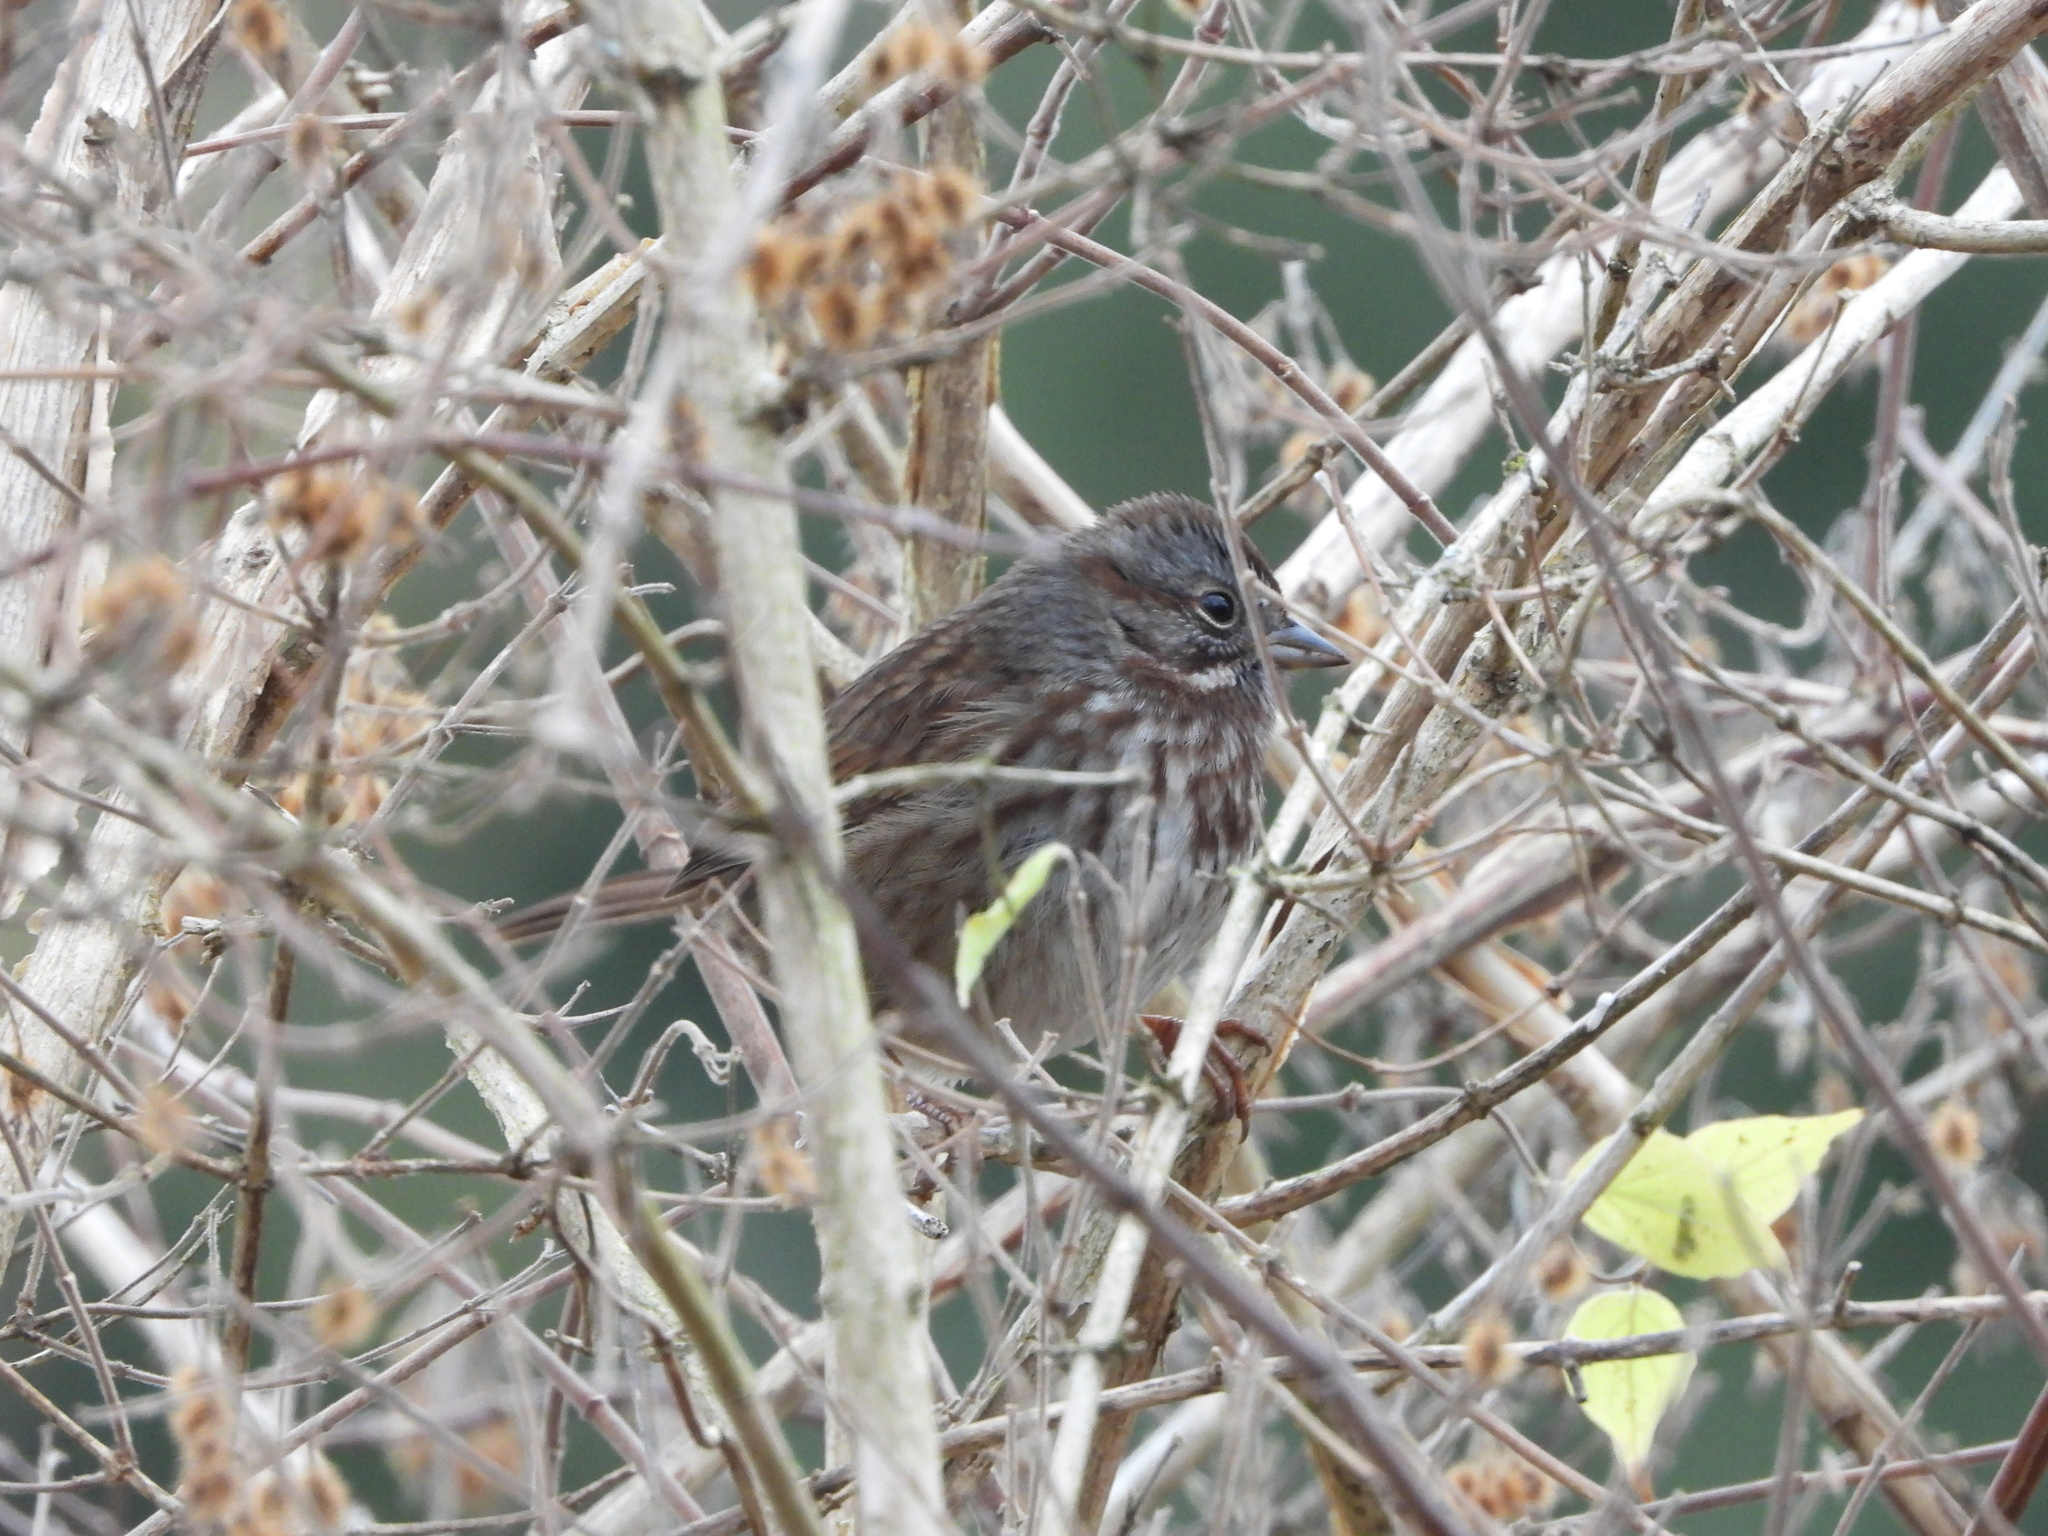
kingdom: Animalia
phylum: Chordata
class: Aves
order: Passeriformes
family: Passerellidae
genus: Melospiza
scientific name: Melospiza melodia
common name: Song sparrow
